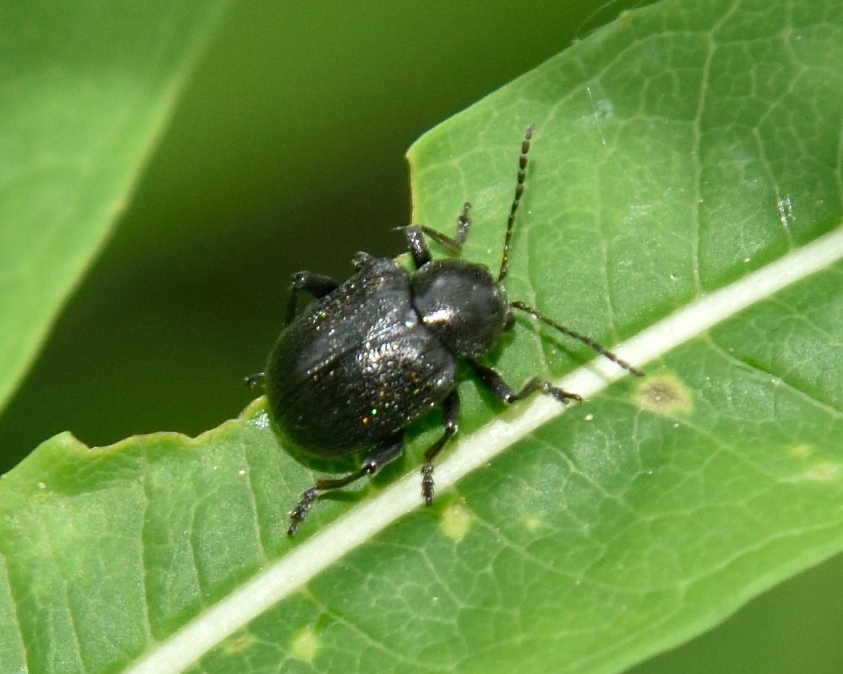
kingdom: Animalia
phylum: Arthropoda
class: Insecta
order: Coleoptera
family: Chrysomelidae
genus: Bromius
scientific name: Bromius obscurus
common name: Western grape rootworm
